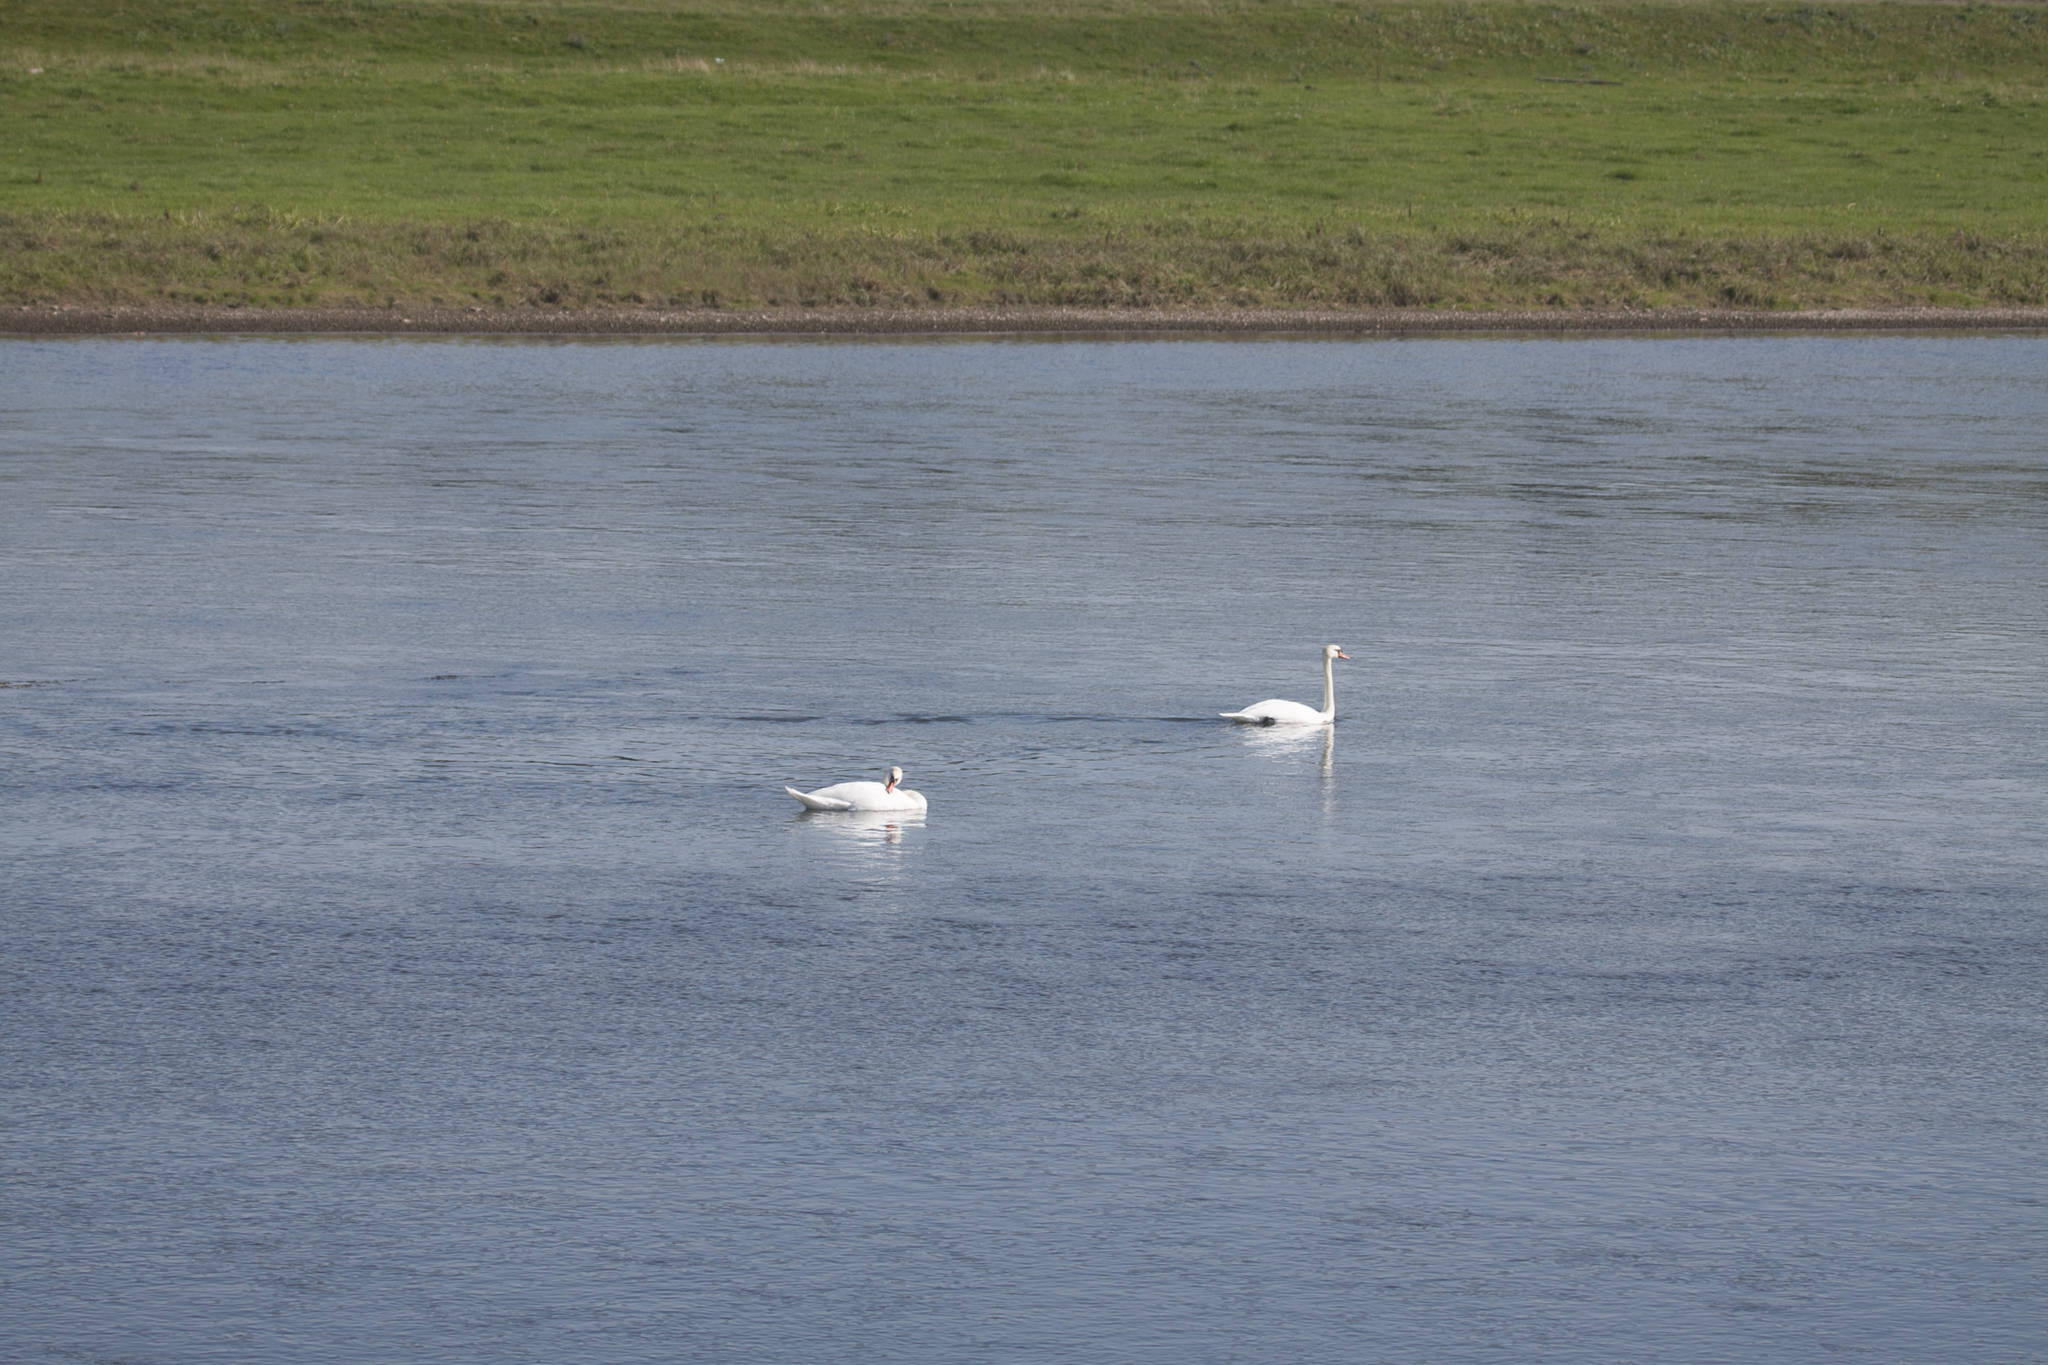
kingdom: Animalia
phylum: Chordata
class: Aves
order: Anseriformes
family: Anatidae
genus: Cygnus
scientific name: Cygnus olor
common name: Mute swan
